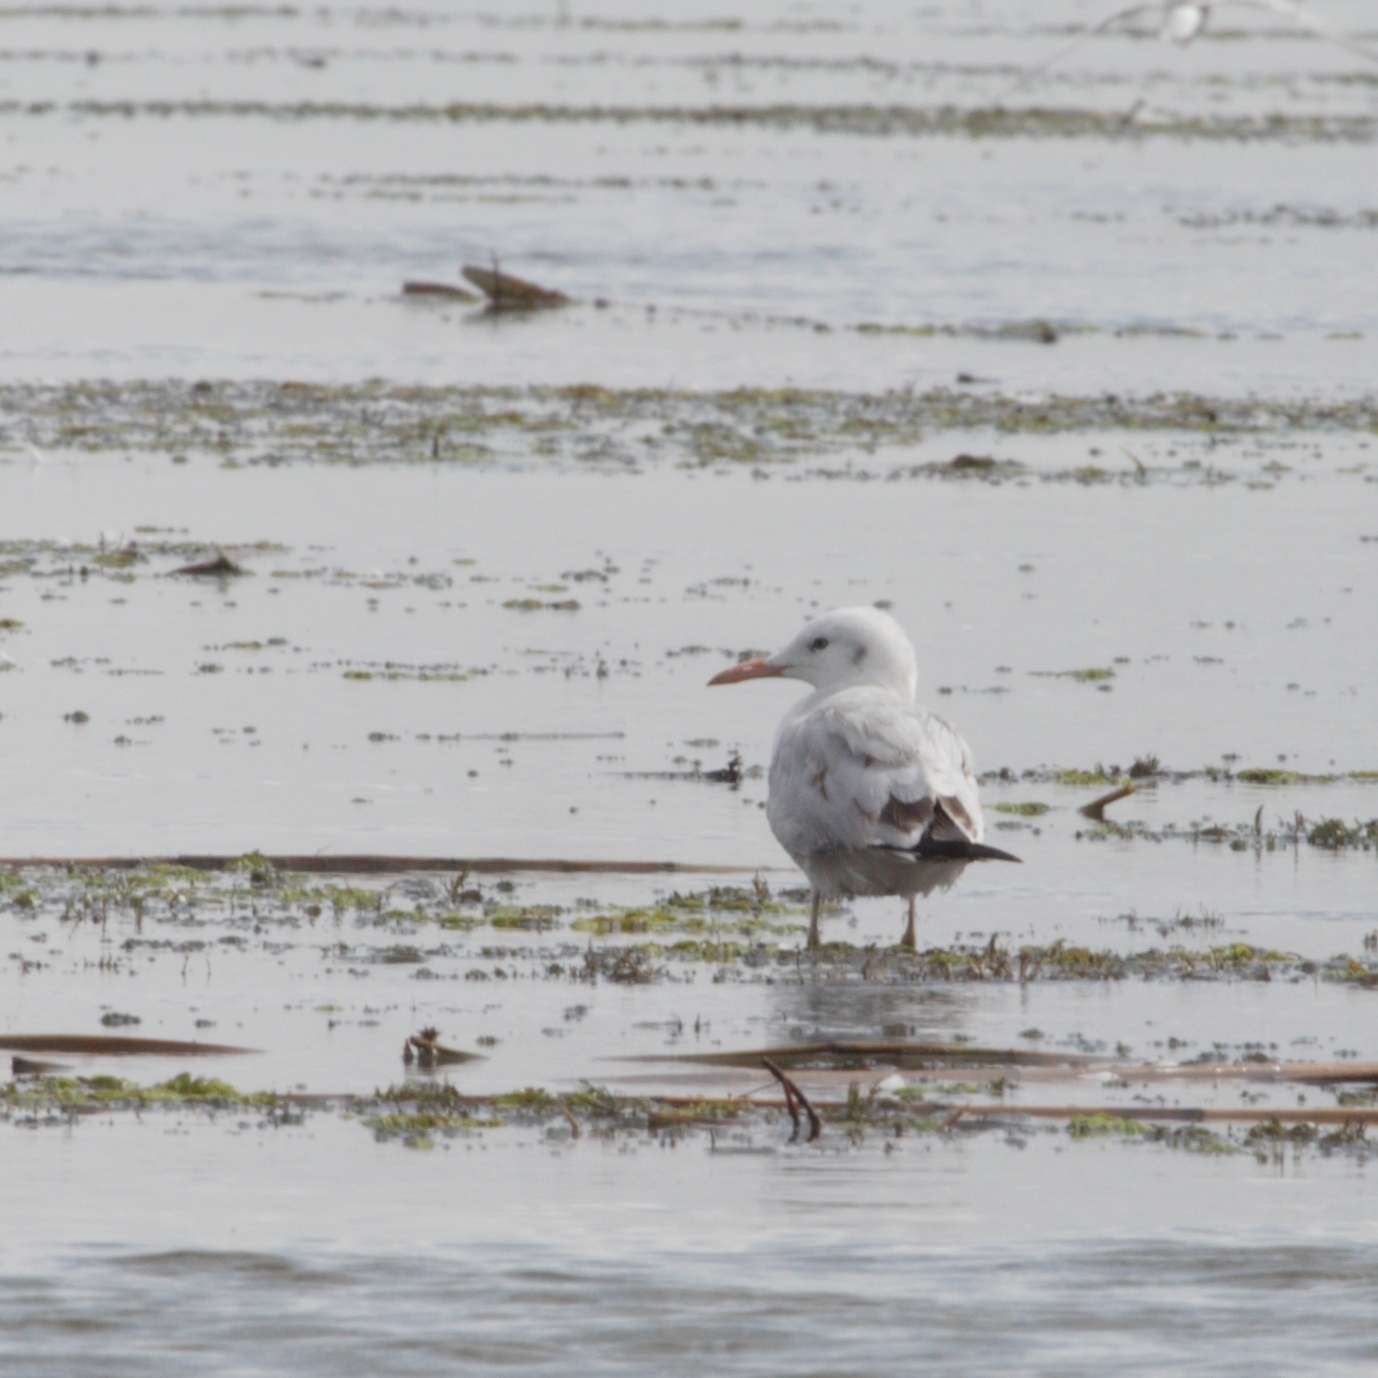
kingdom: Animalia
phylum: Chordata
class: Aves
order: Charadriiformes
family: Laridae
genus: Chroicocephalus
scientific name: Chroicocephalus genei
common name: Slender-billed gull
